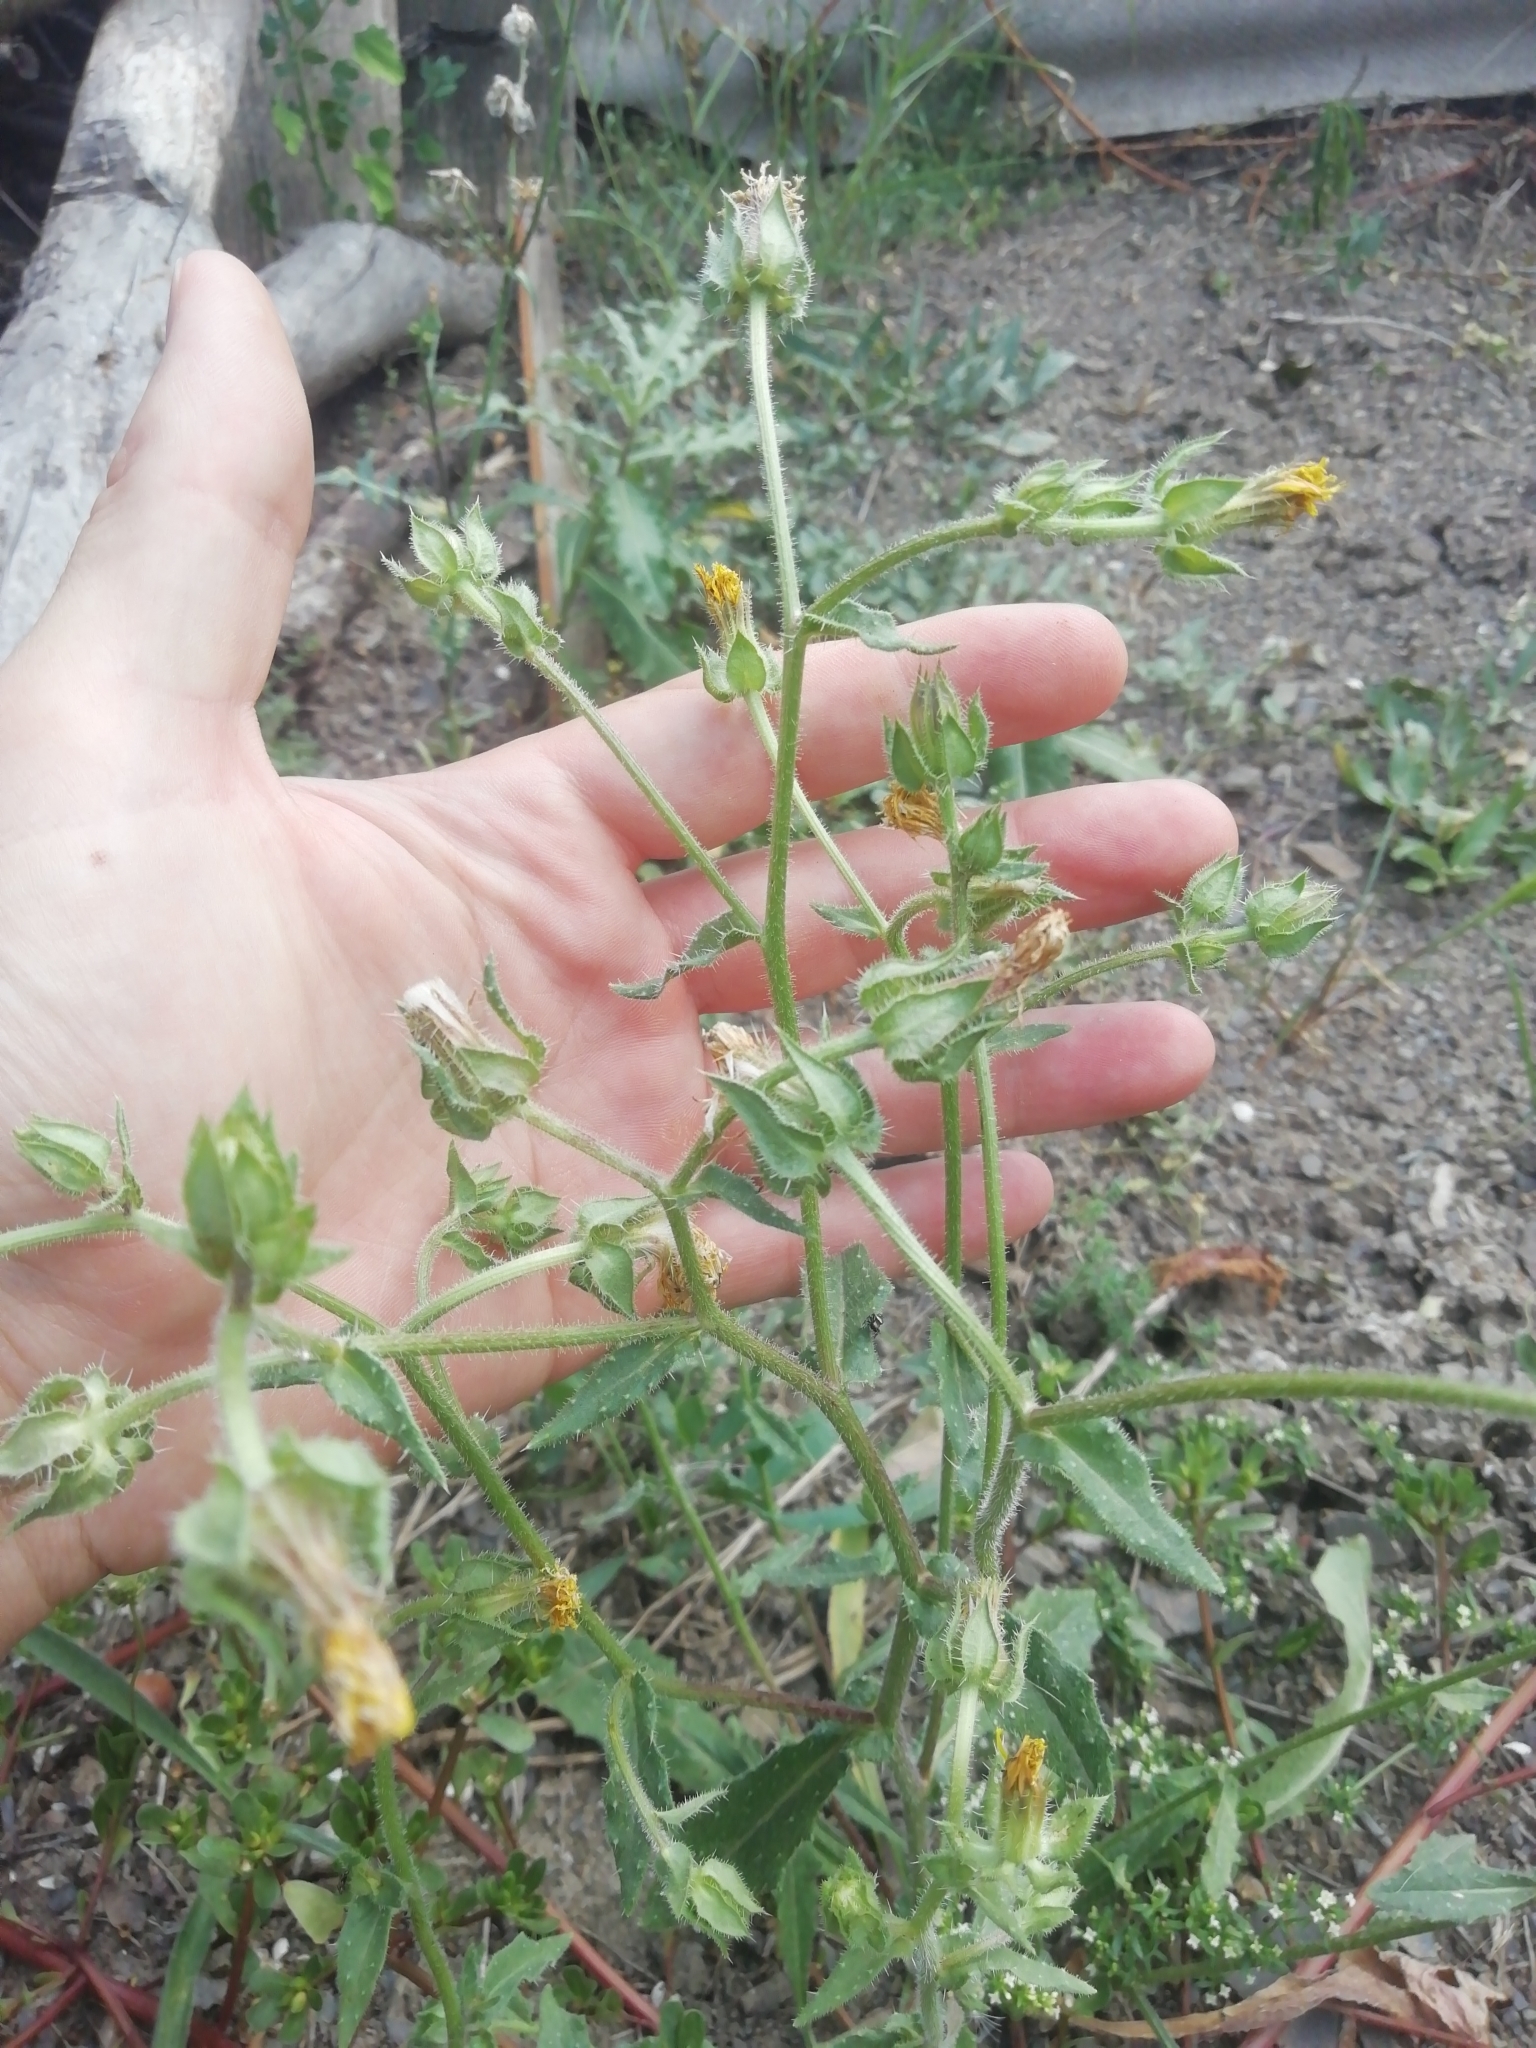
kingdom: Plantae
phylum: Tracheophyta
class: Magnoliopsida
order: Asterales
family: Asteraceae
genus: Helminthotheca
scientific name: Helminthotheca echioides
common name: Ox-tongue
